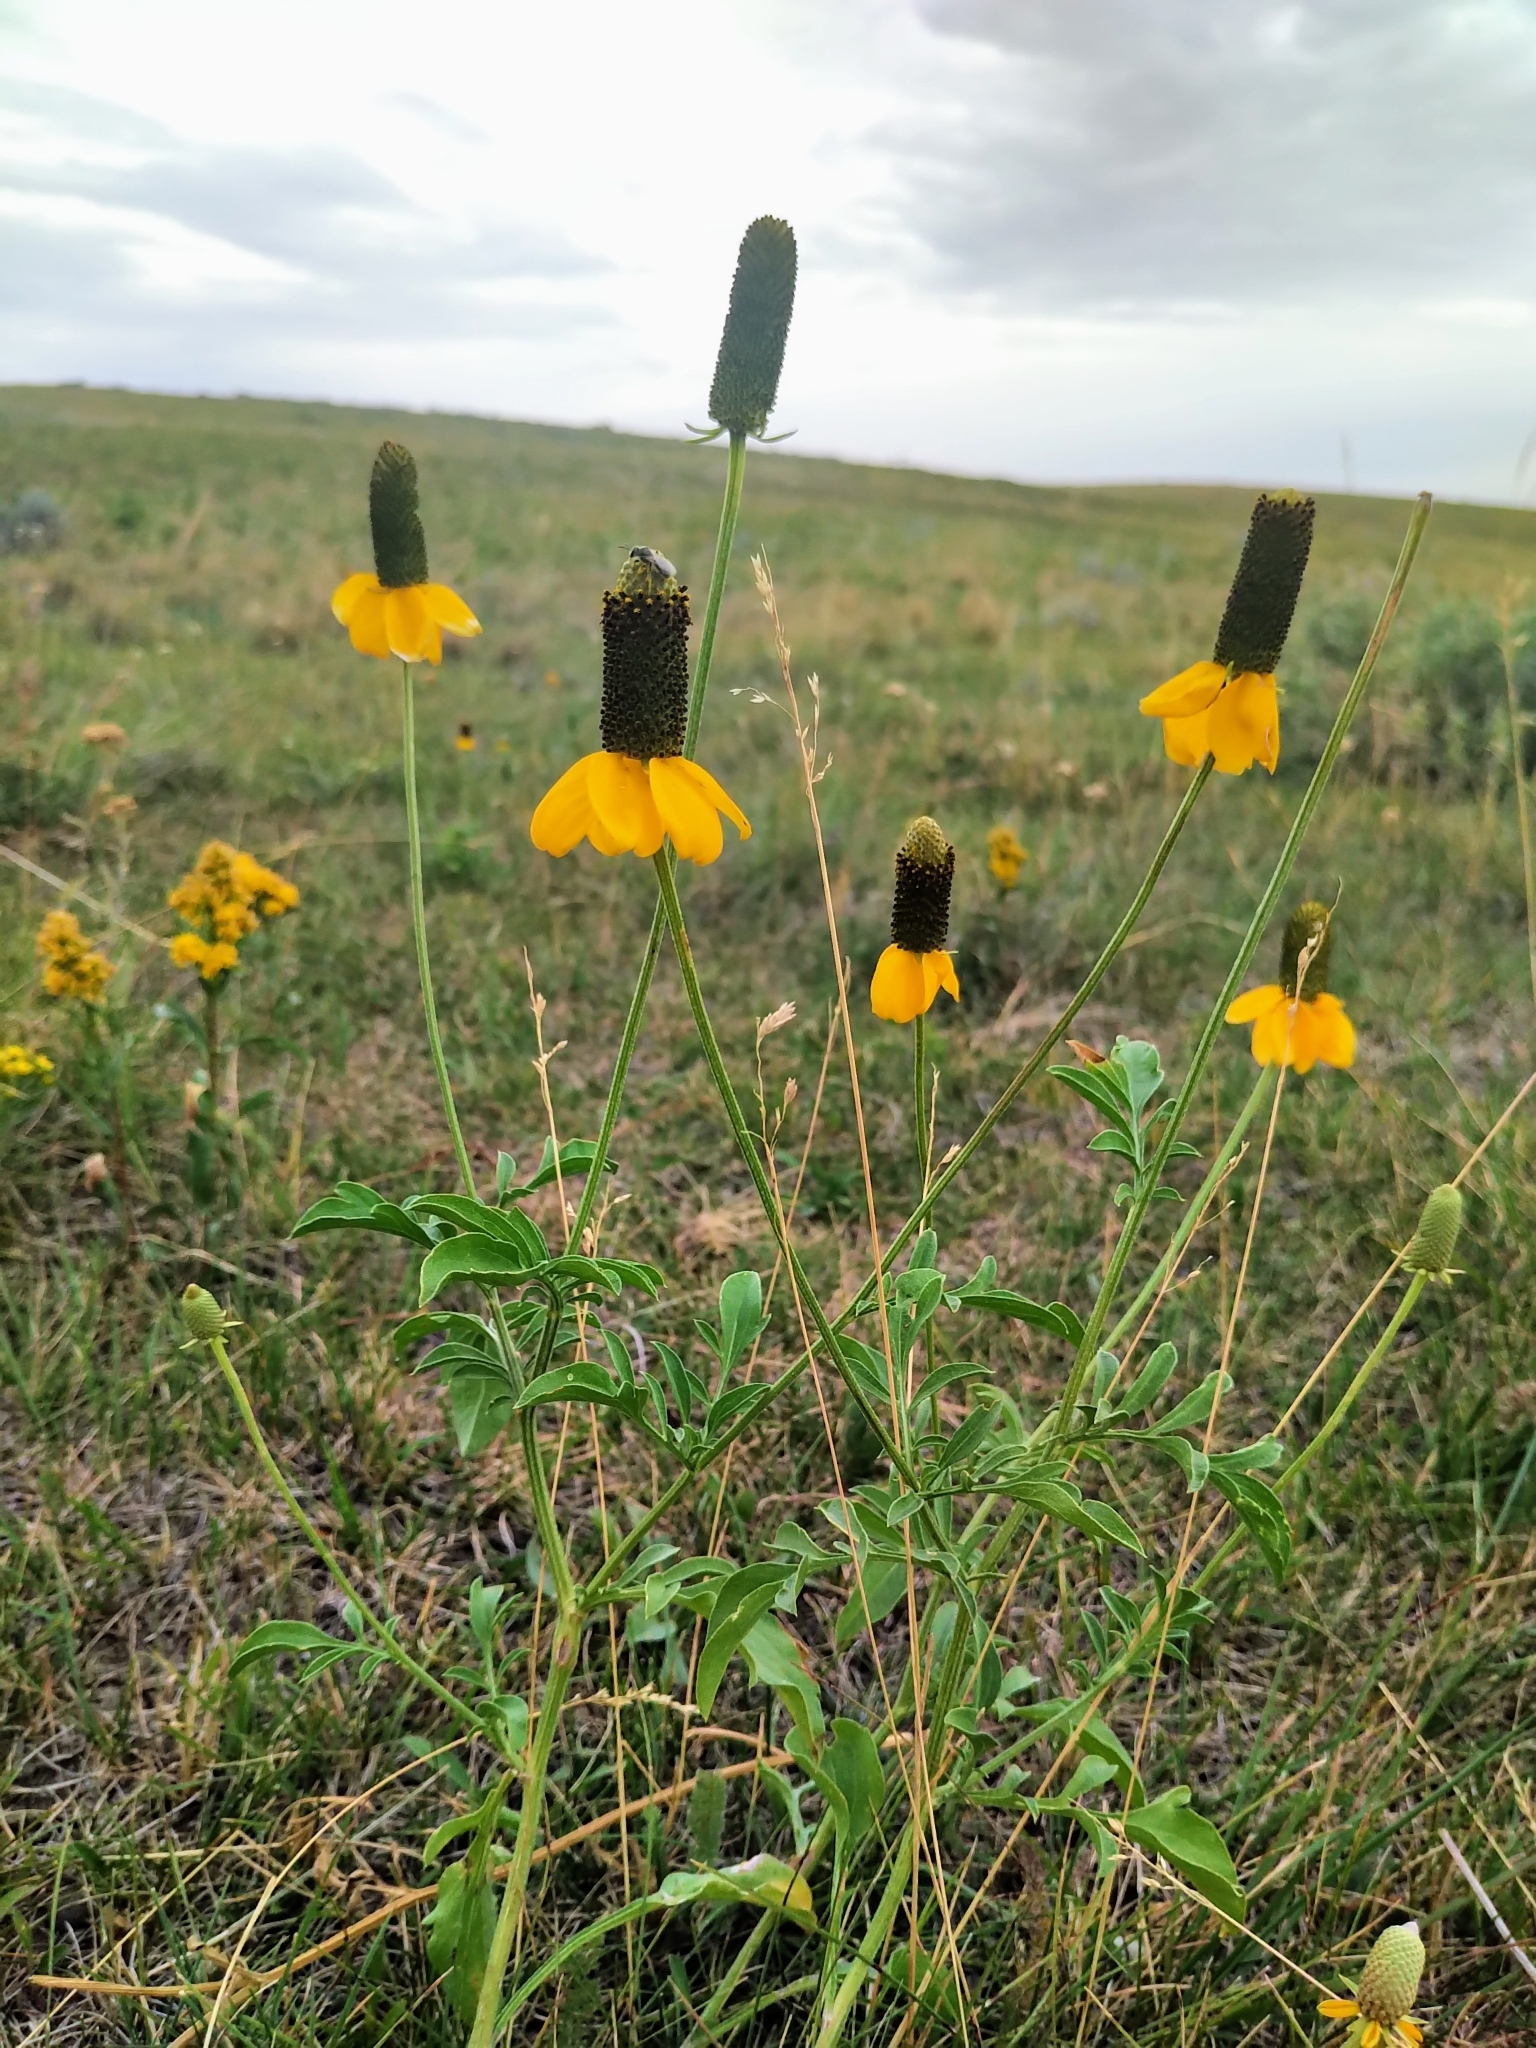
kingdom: Plantae
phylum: Tracheophyta
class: Magnoliopsida
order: Asterales
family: Asteraceae
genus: Ratibida
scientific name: Ratibida columnifera
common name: Prairie coneflower
